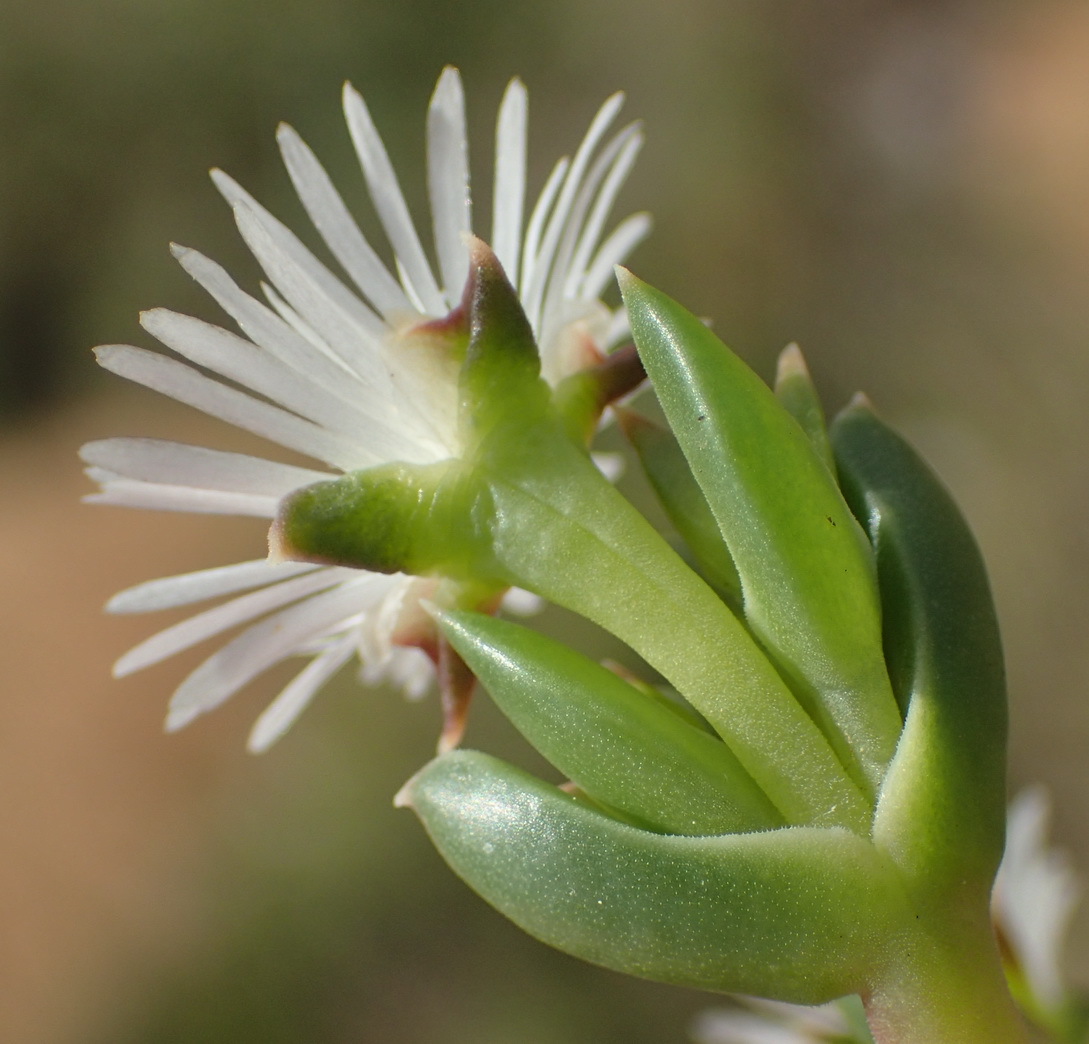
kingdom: Plantae
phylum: Tracheophyta
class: Magnoliopsida
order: Caryophyllales
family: Aizoaceae
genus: Delosperma
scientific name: Delosperma inconspicuum
